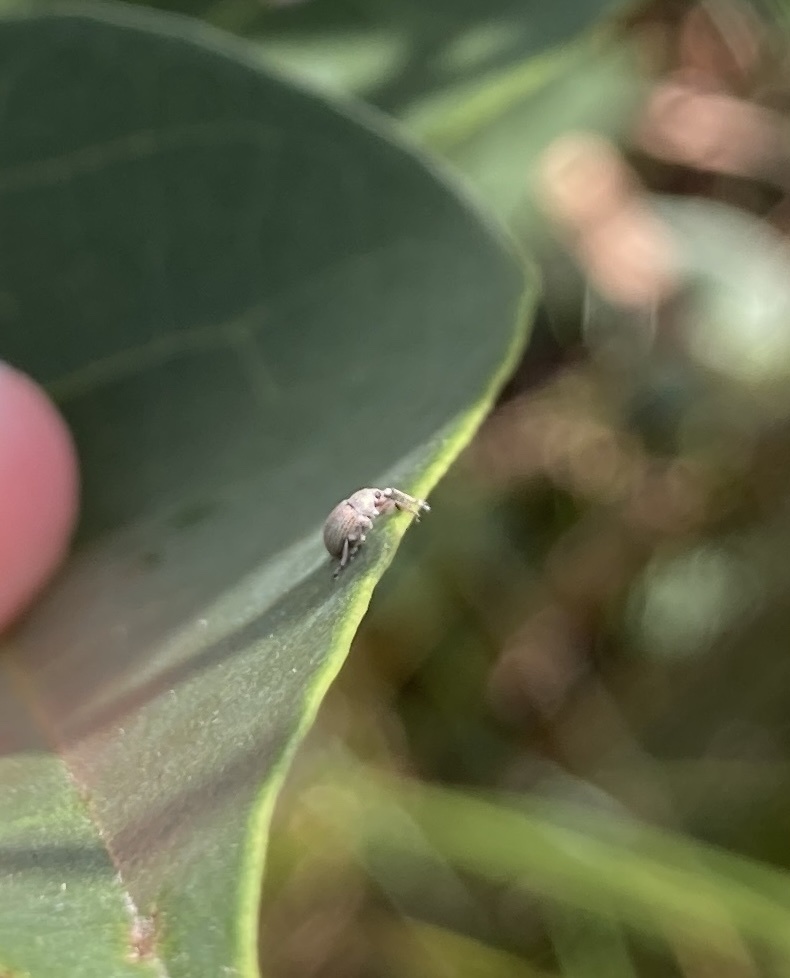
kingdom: Animalia
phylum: Arthropoda
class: Insecta
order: Coleoptera
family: Brentidae
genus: Exapion
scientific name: Exapion ulicis
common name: Gorse seed weevil
